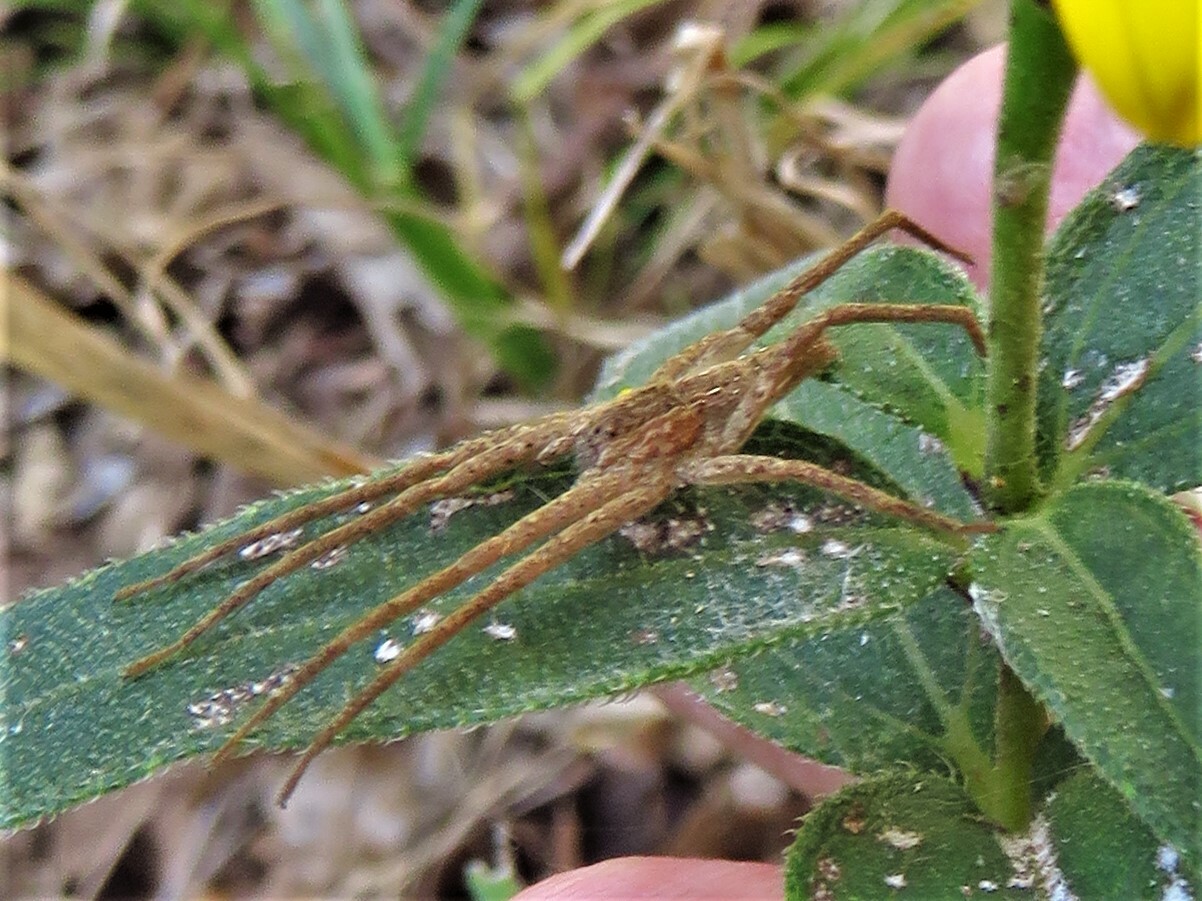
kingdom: Animalia
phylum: Arthropoda
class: Arachnida
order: Araneae
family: Pisauridae
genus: Pisaurina
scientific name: Pisaurina mira
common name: American nursery web spider
